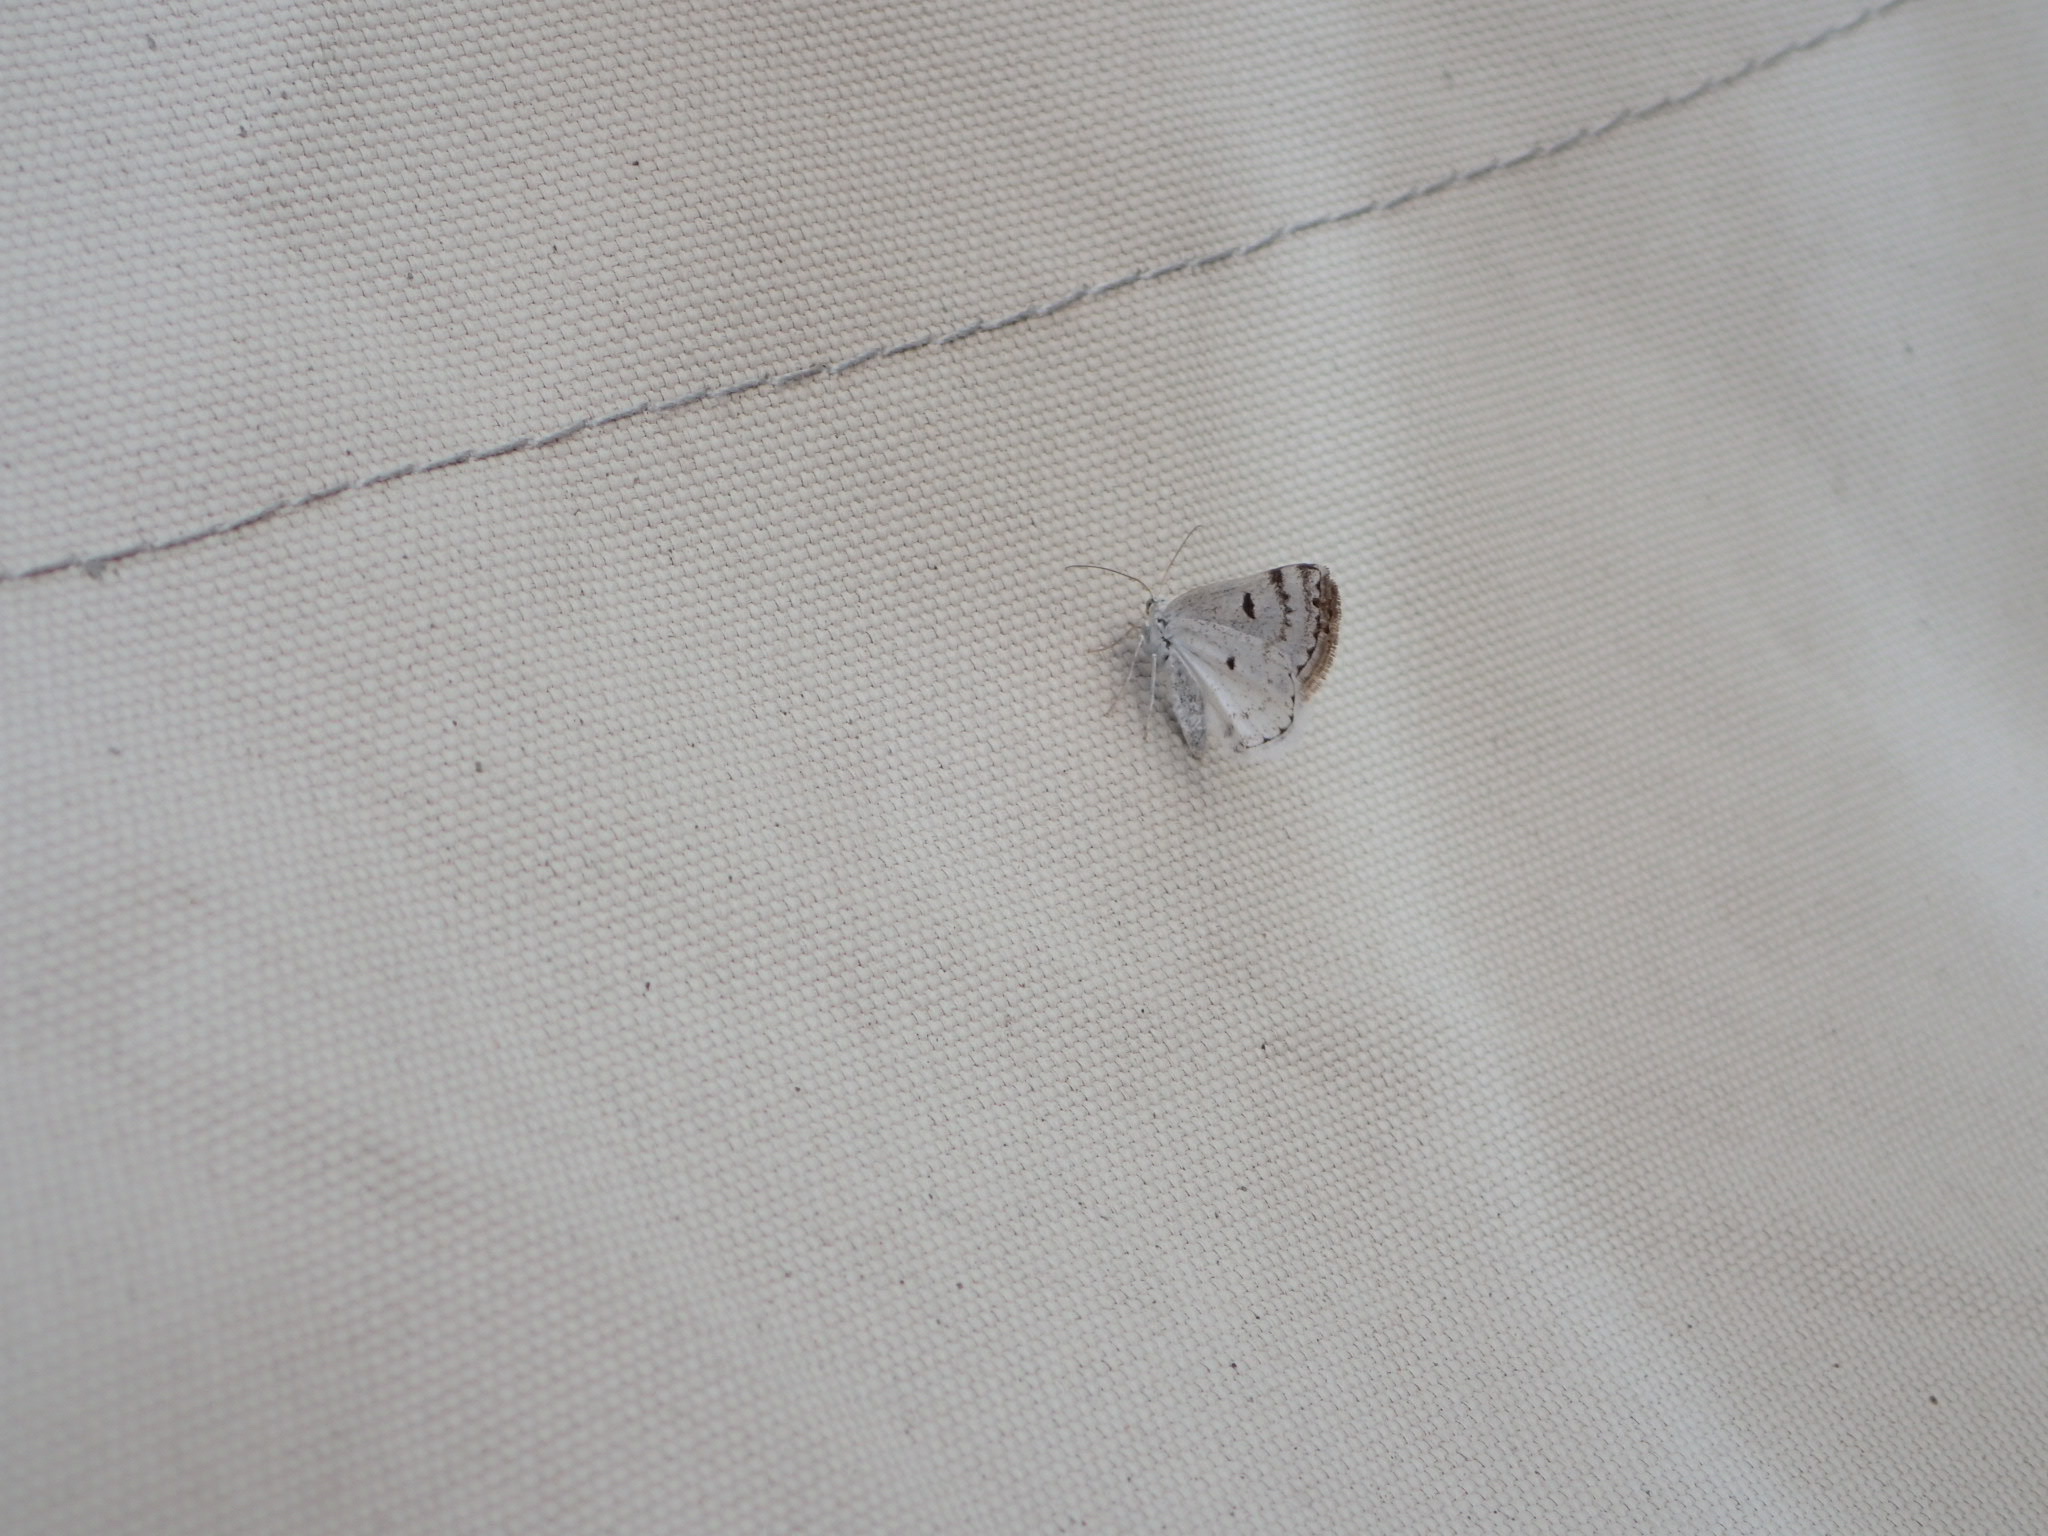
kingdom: Animalia
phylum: Arthropoda
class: Insecta
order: Lepidoptera
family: Geometridae
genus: Lomographa
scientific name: Lomographa semiclarata
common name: Bluish spring moth
